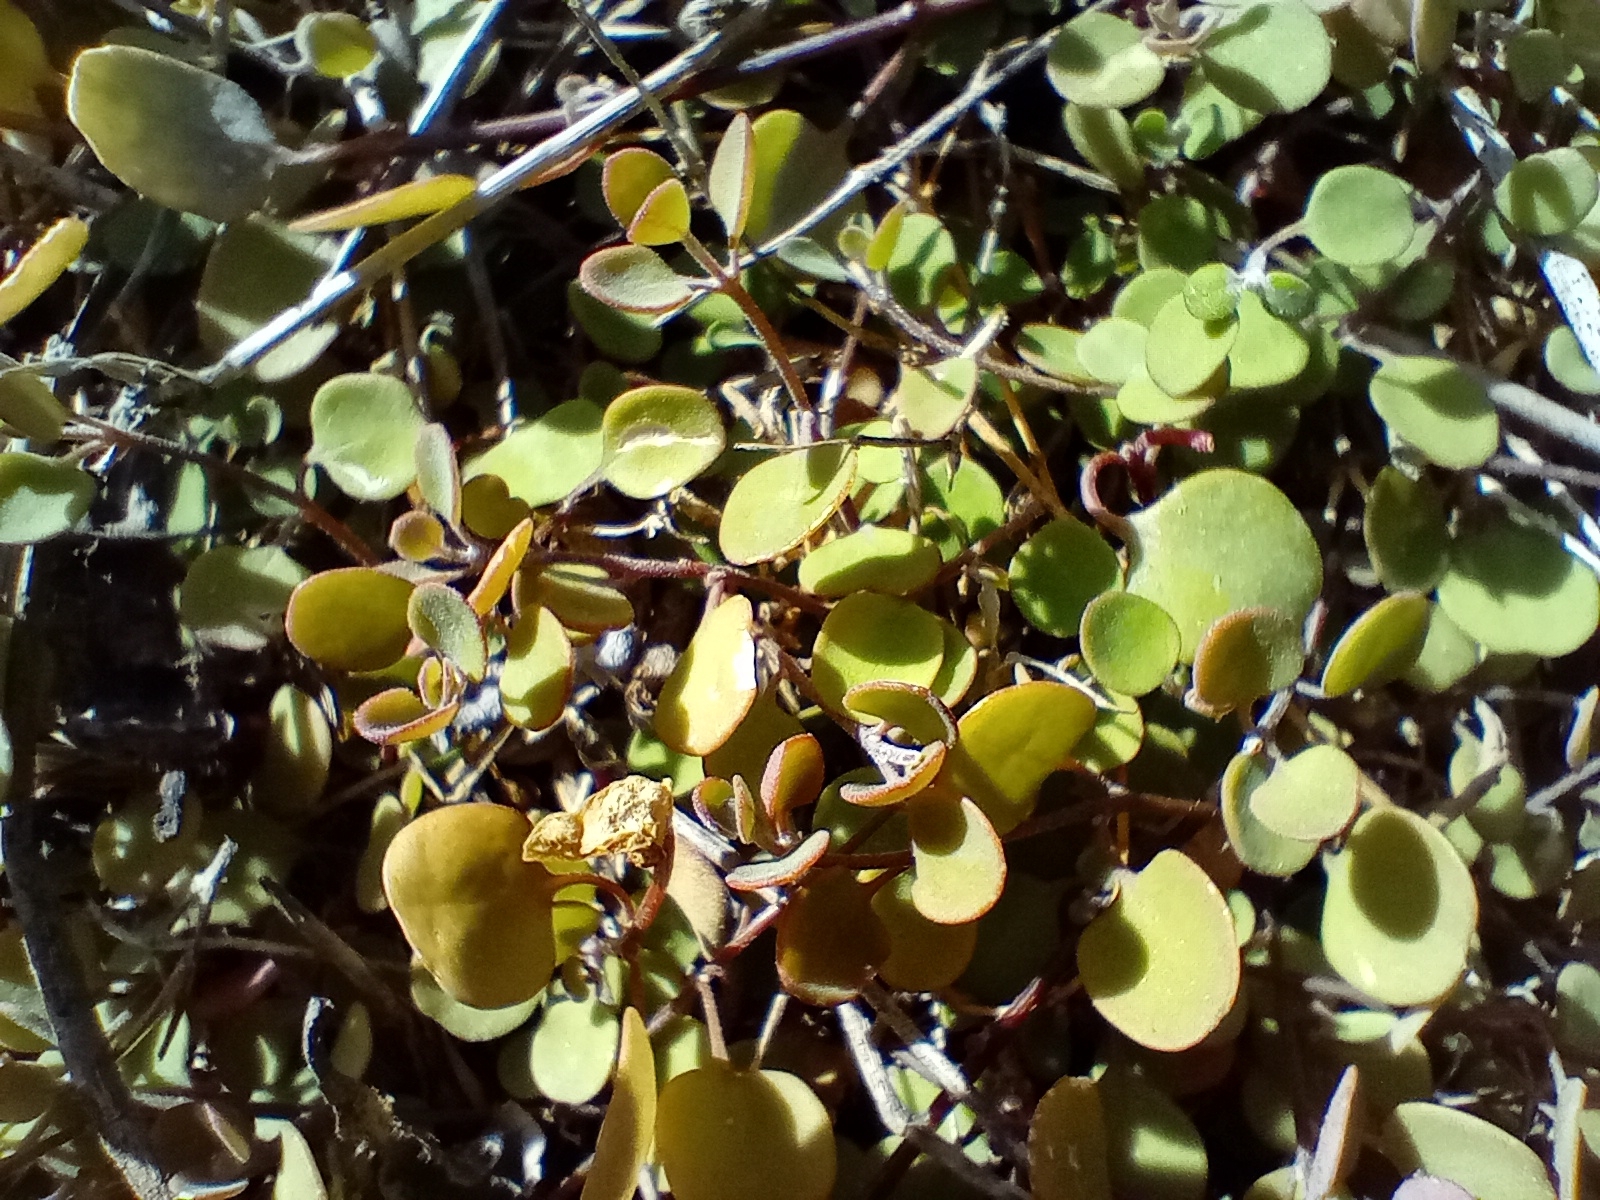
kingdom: Plantae
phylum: Tracheophyta
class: Magnoliopsida
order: Caryophyllales
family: Amaranthaceae
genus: Chenopodium
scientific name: Chenopodium allanii
